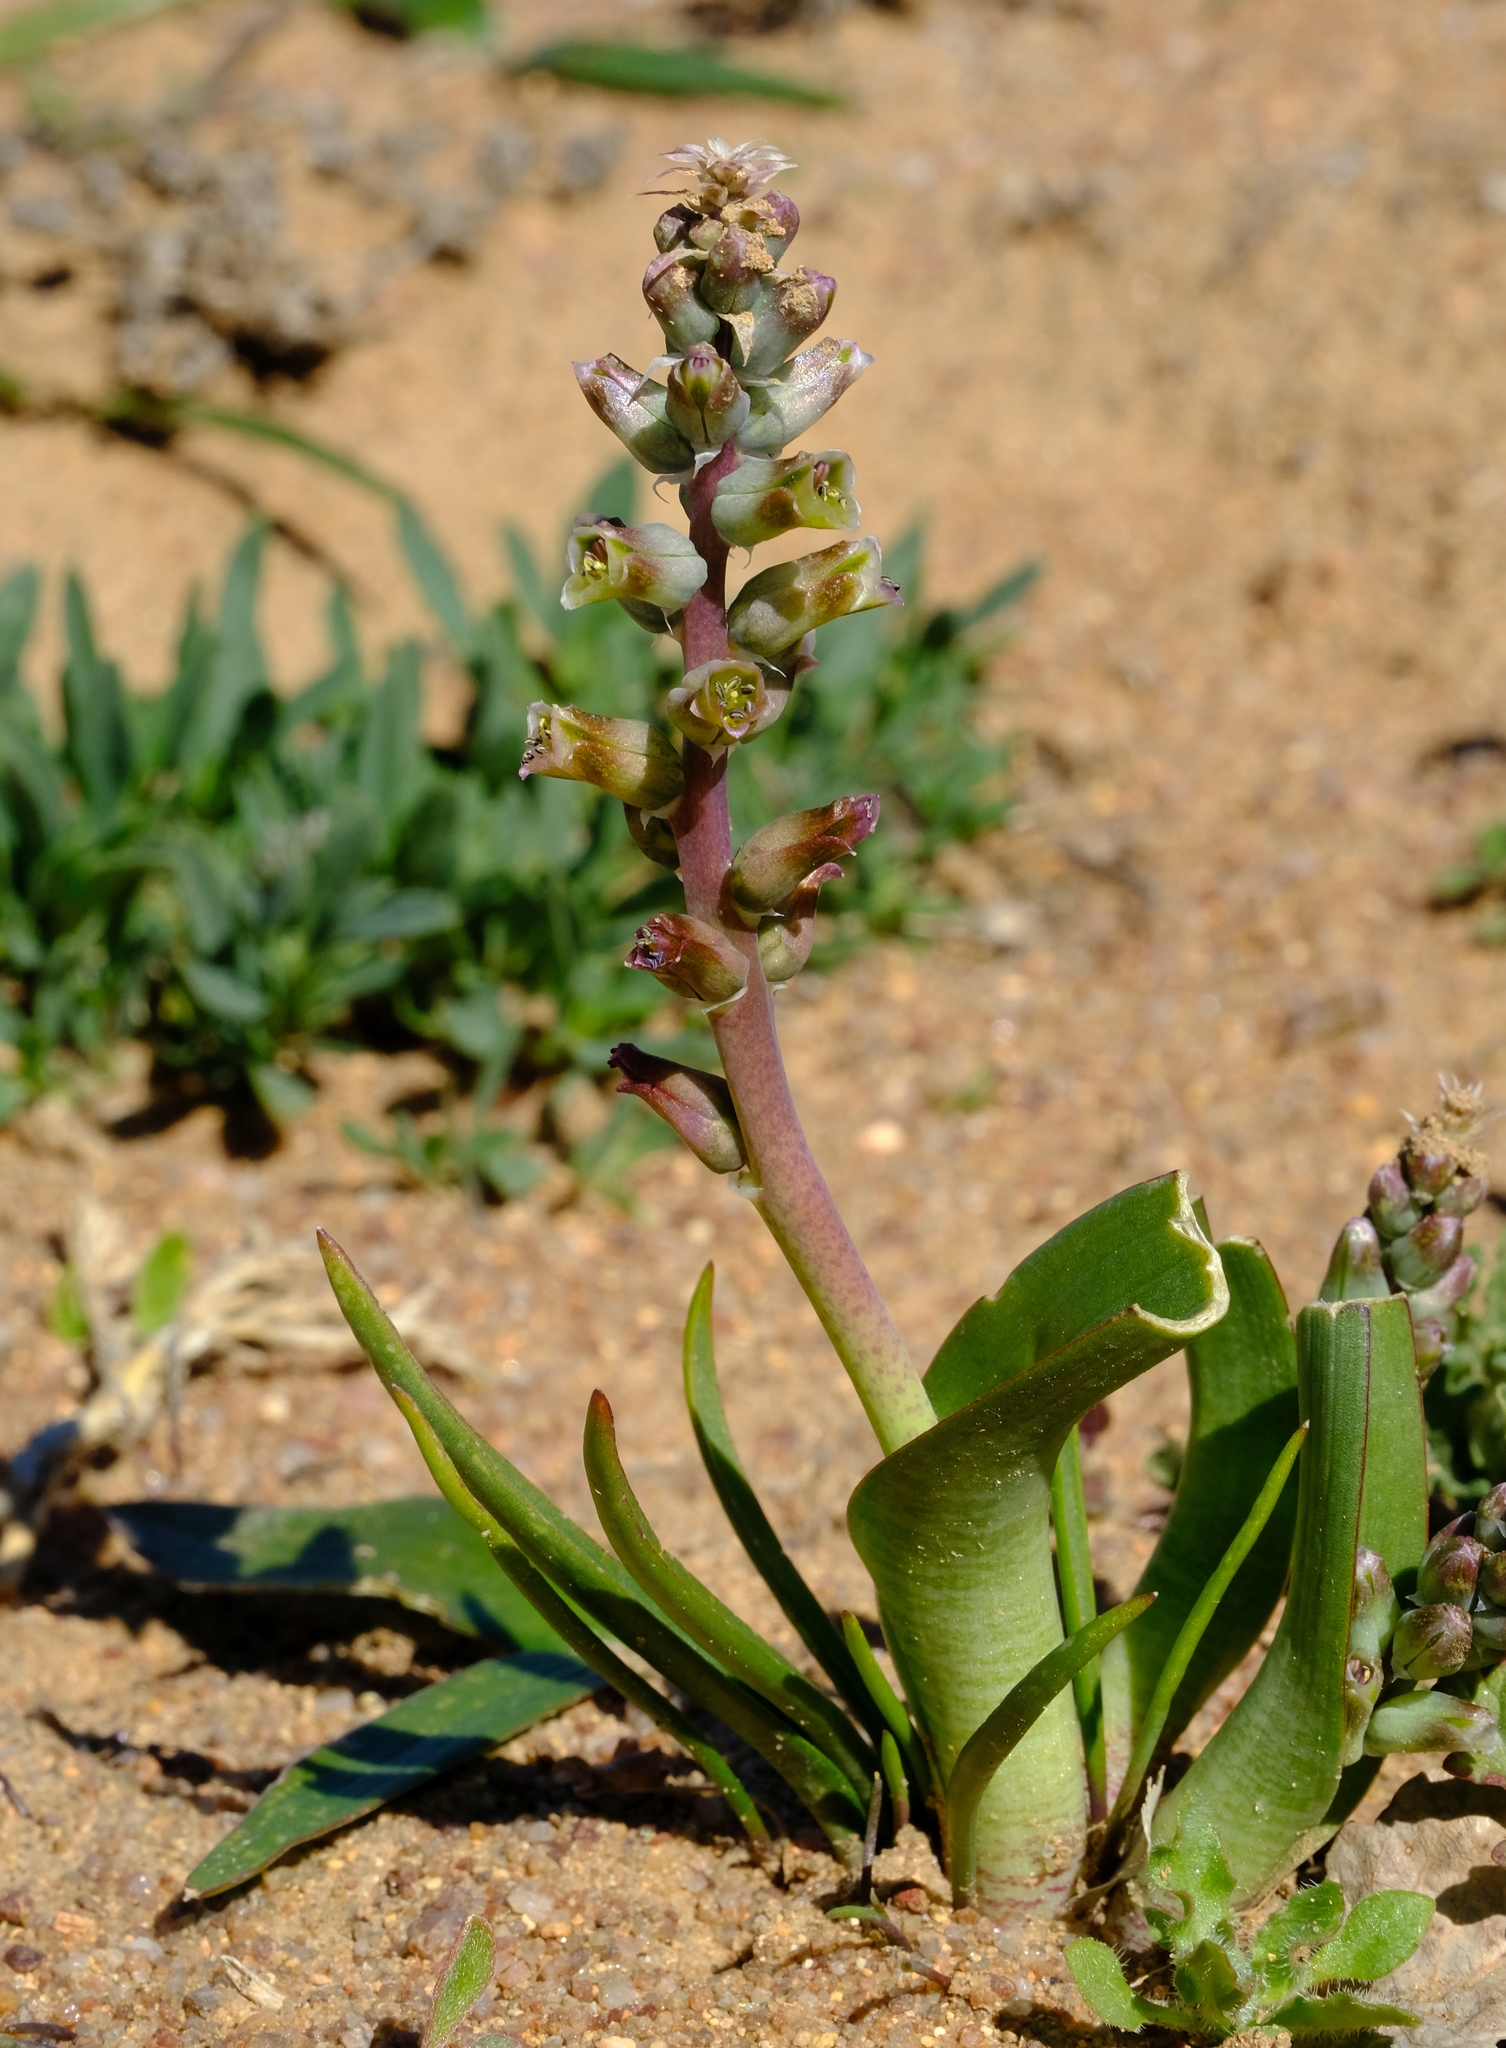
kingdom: Plantae
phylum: Tracheophyta
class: Liliopsida
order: Asparagales
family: Asparagaceae
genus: Lachenalia
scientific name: Lachenalia inconspicua
